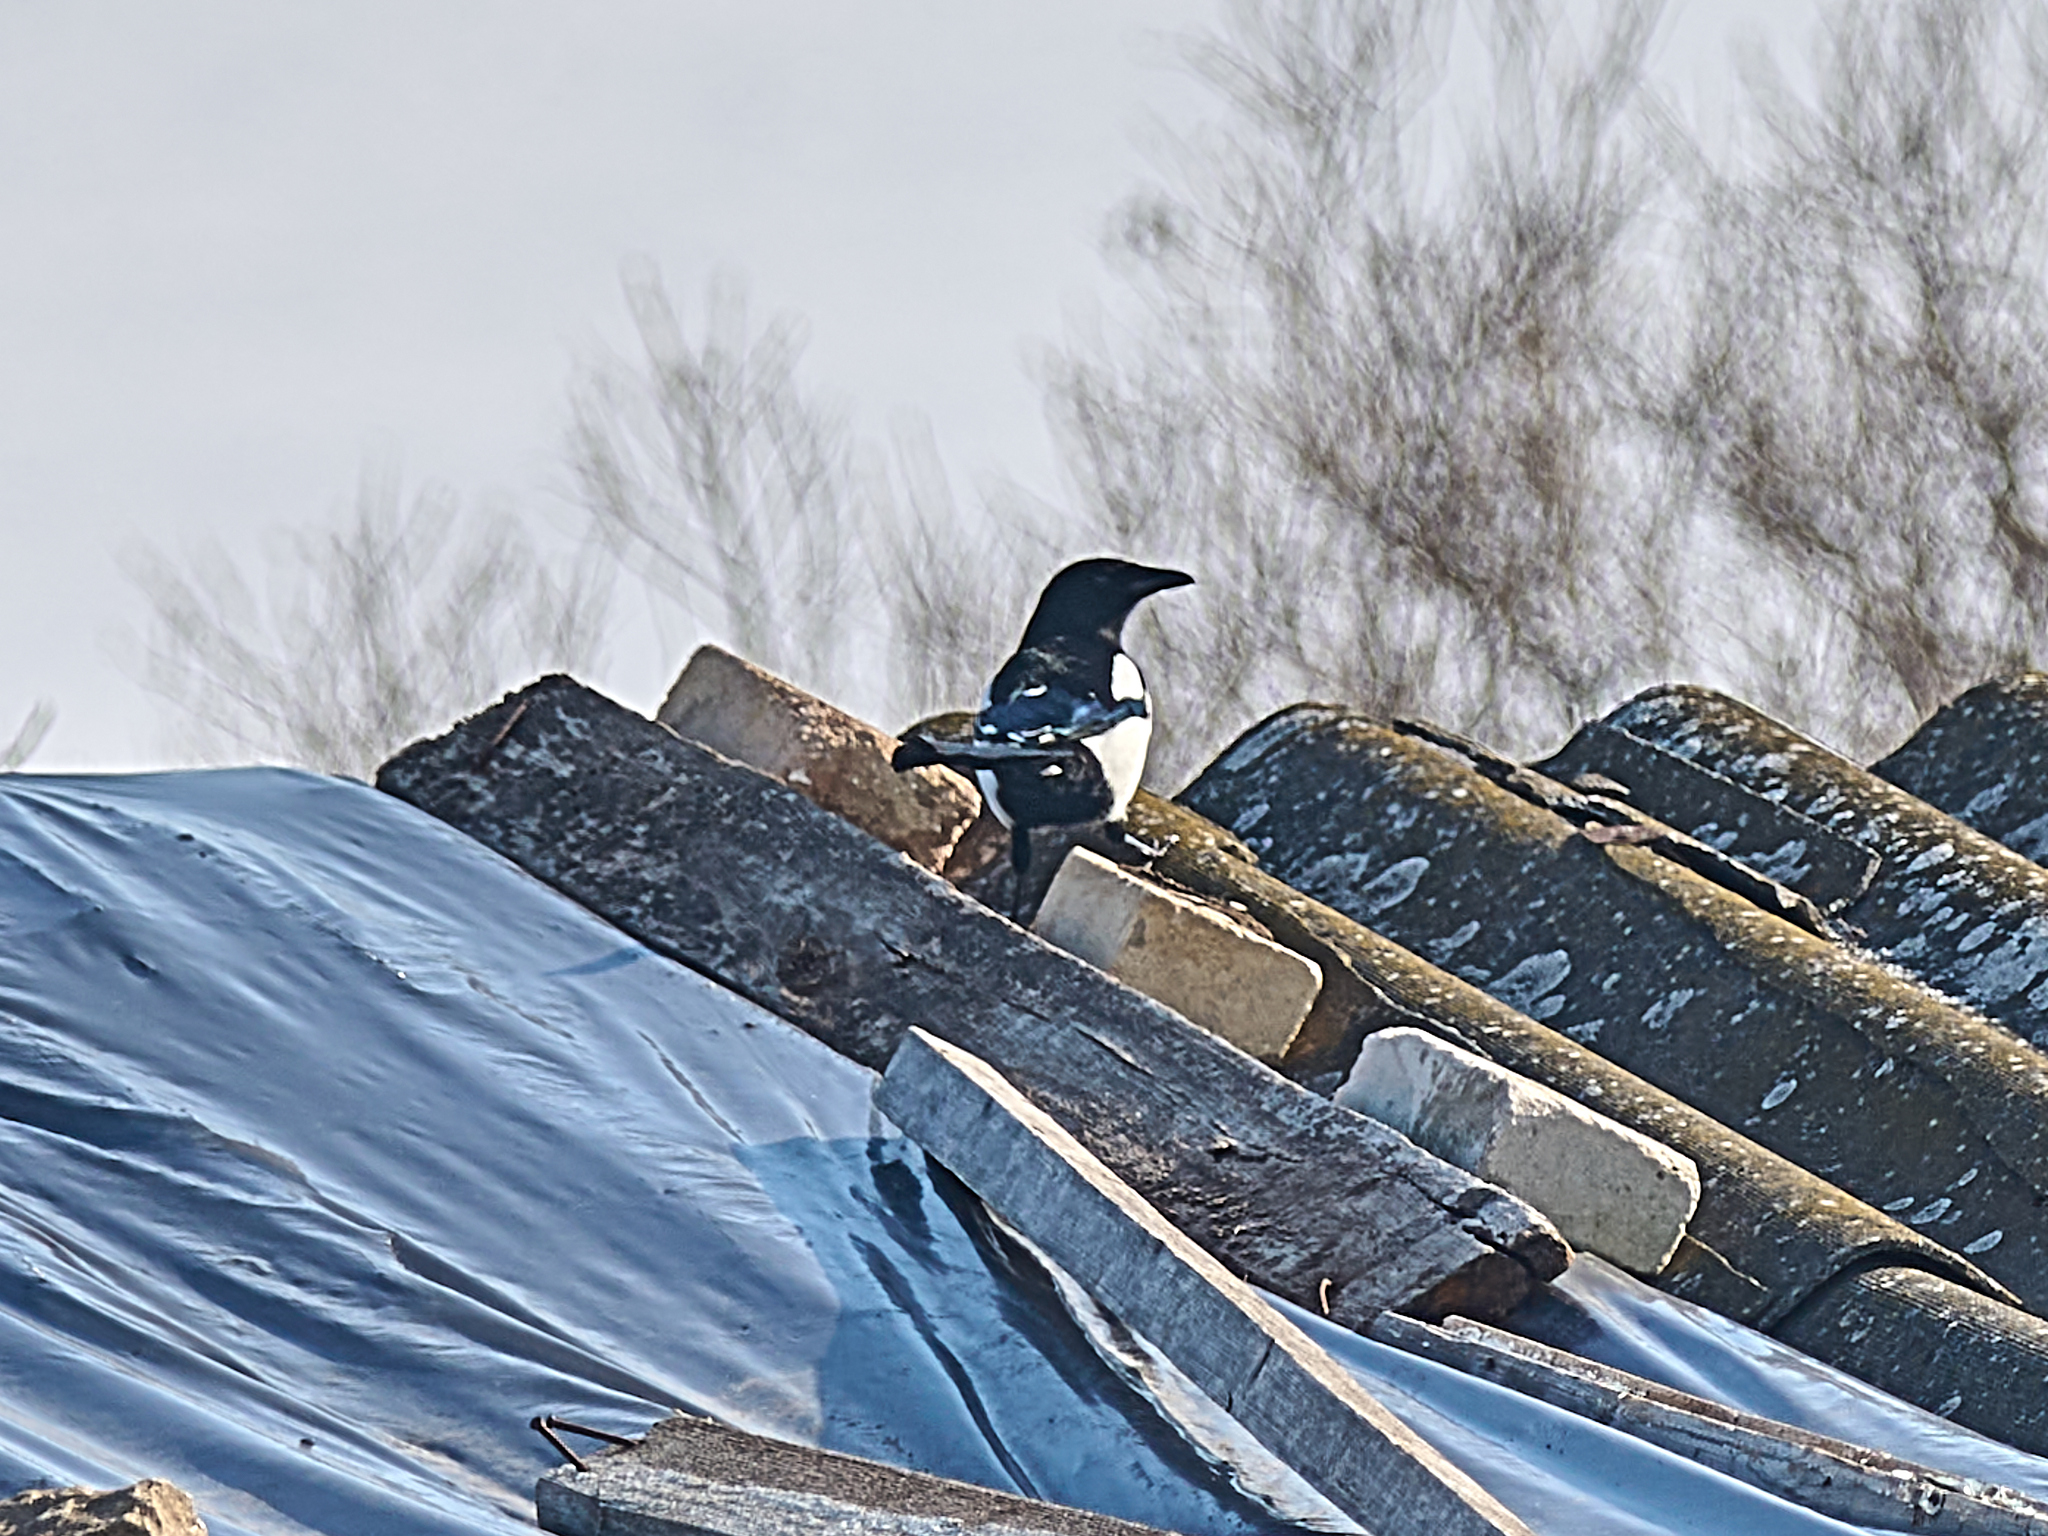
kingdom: Animalia
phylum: Chordata
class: Aves
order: Passeriformes
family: Corvidae
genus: Pica
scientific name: Pica pica
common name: Eurasian magpie
